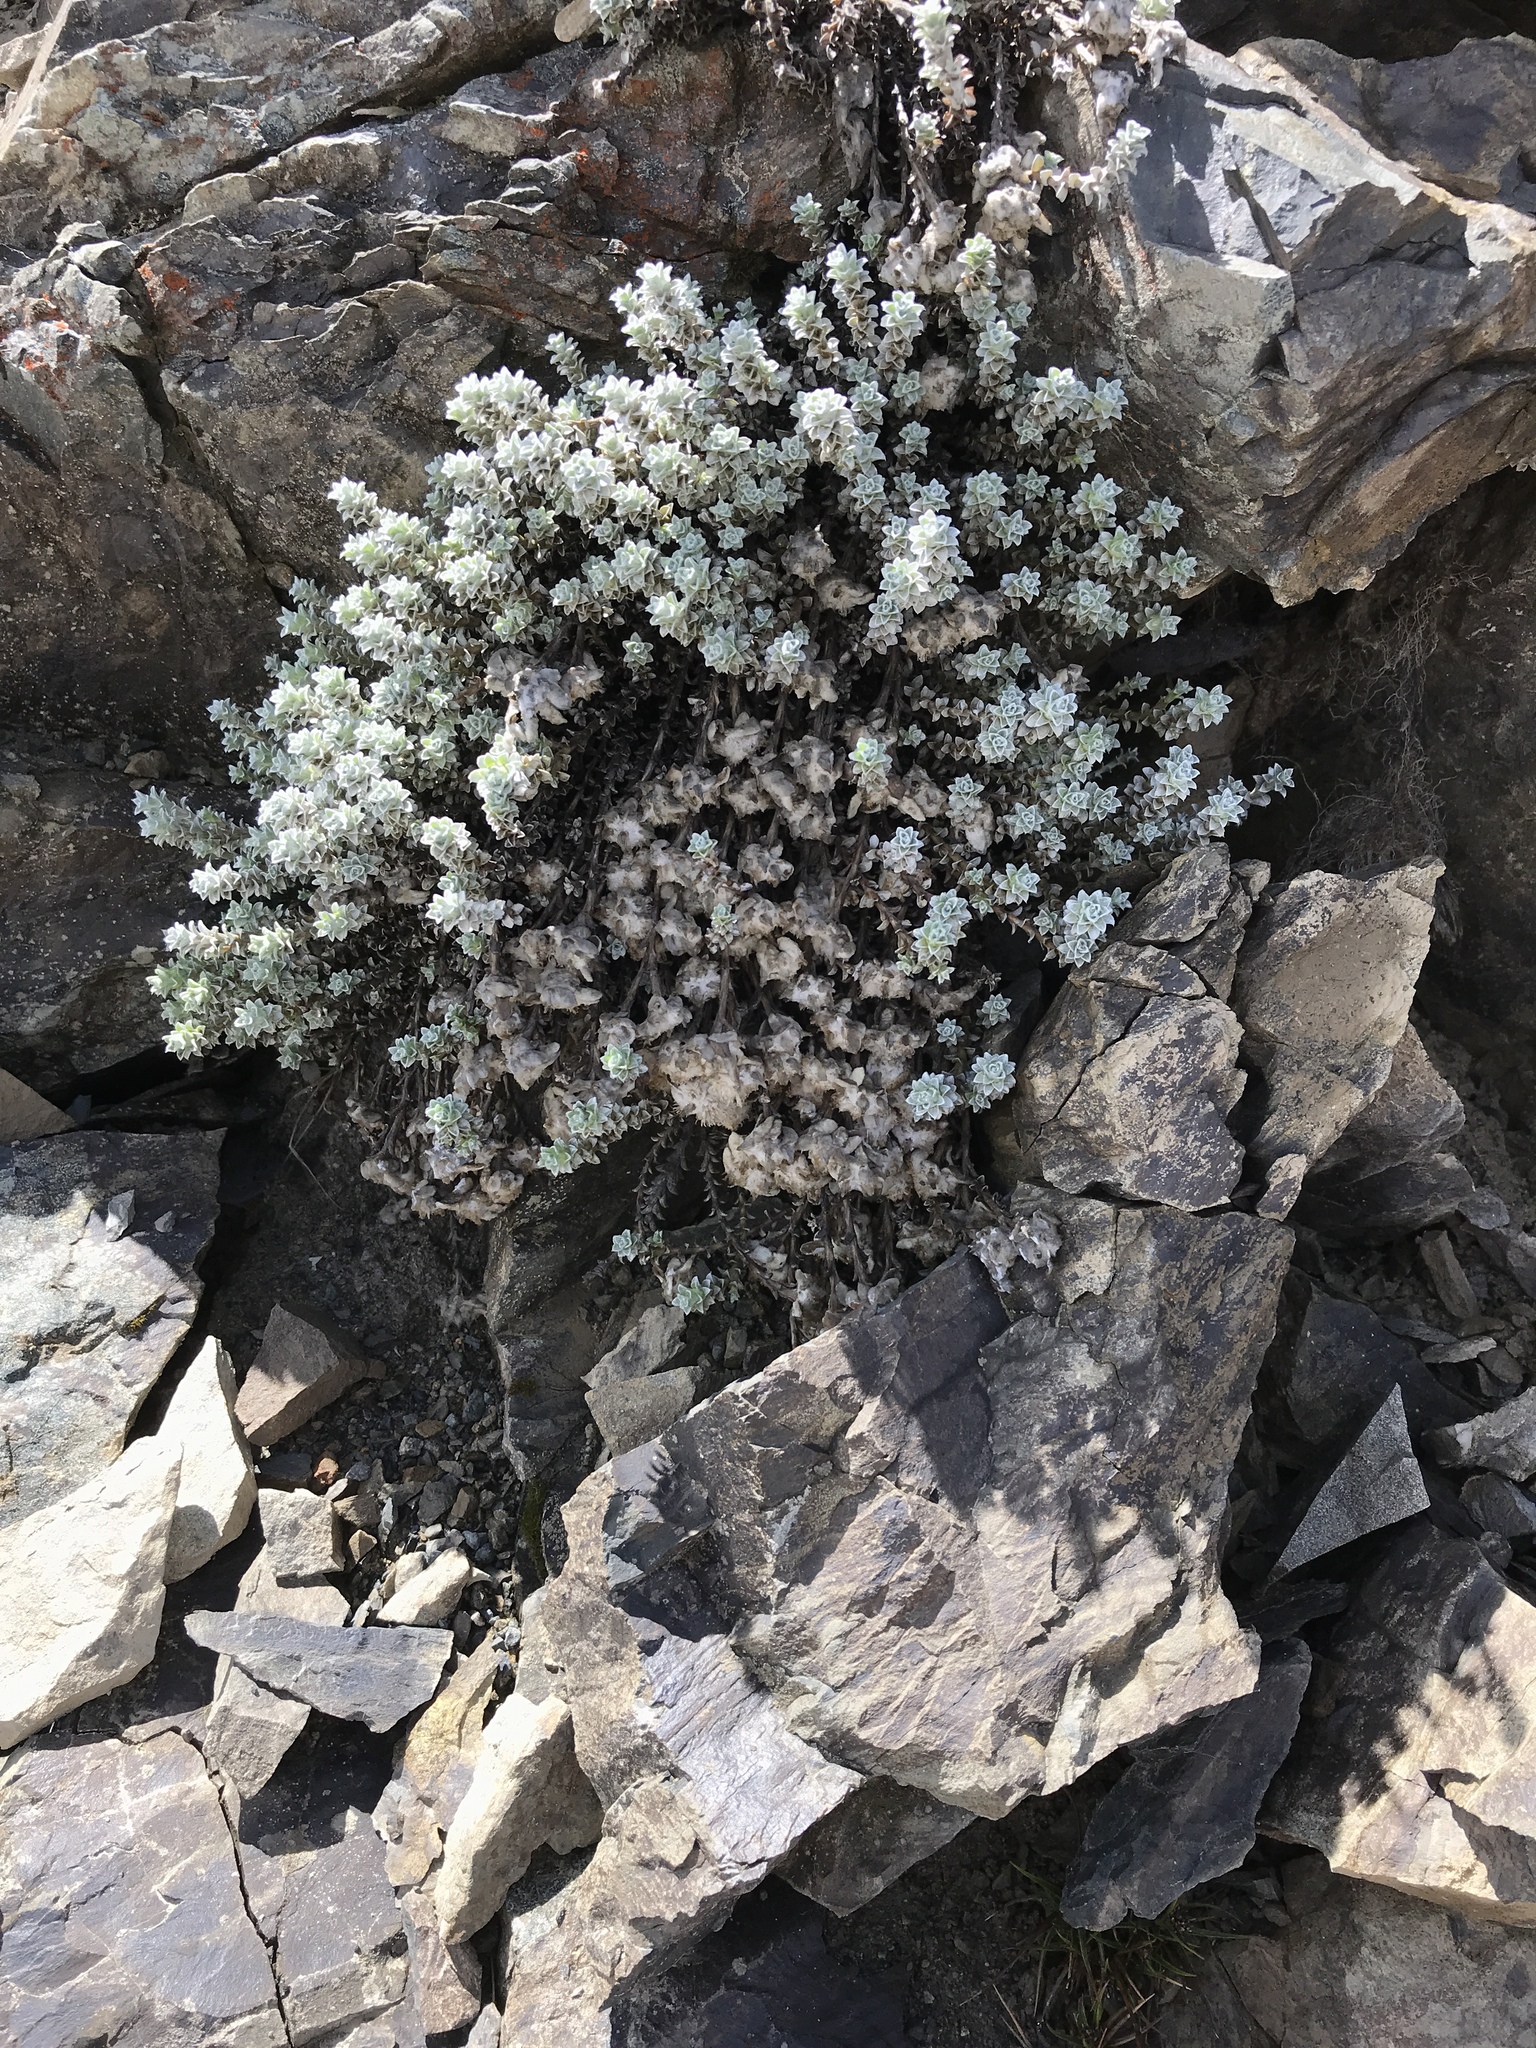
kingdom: Plantae
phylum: Tracheophyta
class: Magnoliopsida
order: Asterales
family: Asteraceae
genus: Leucogenes
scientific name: Leucogenes grandiceps
